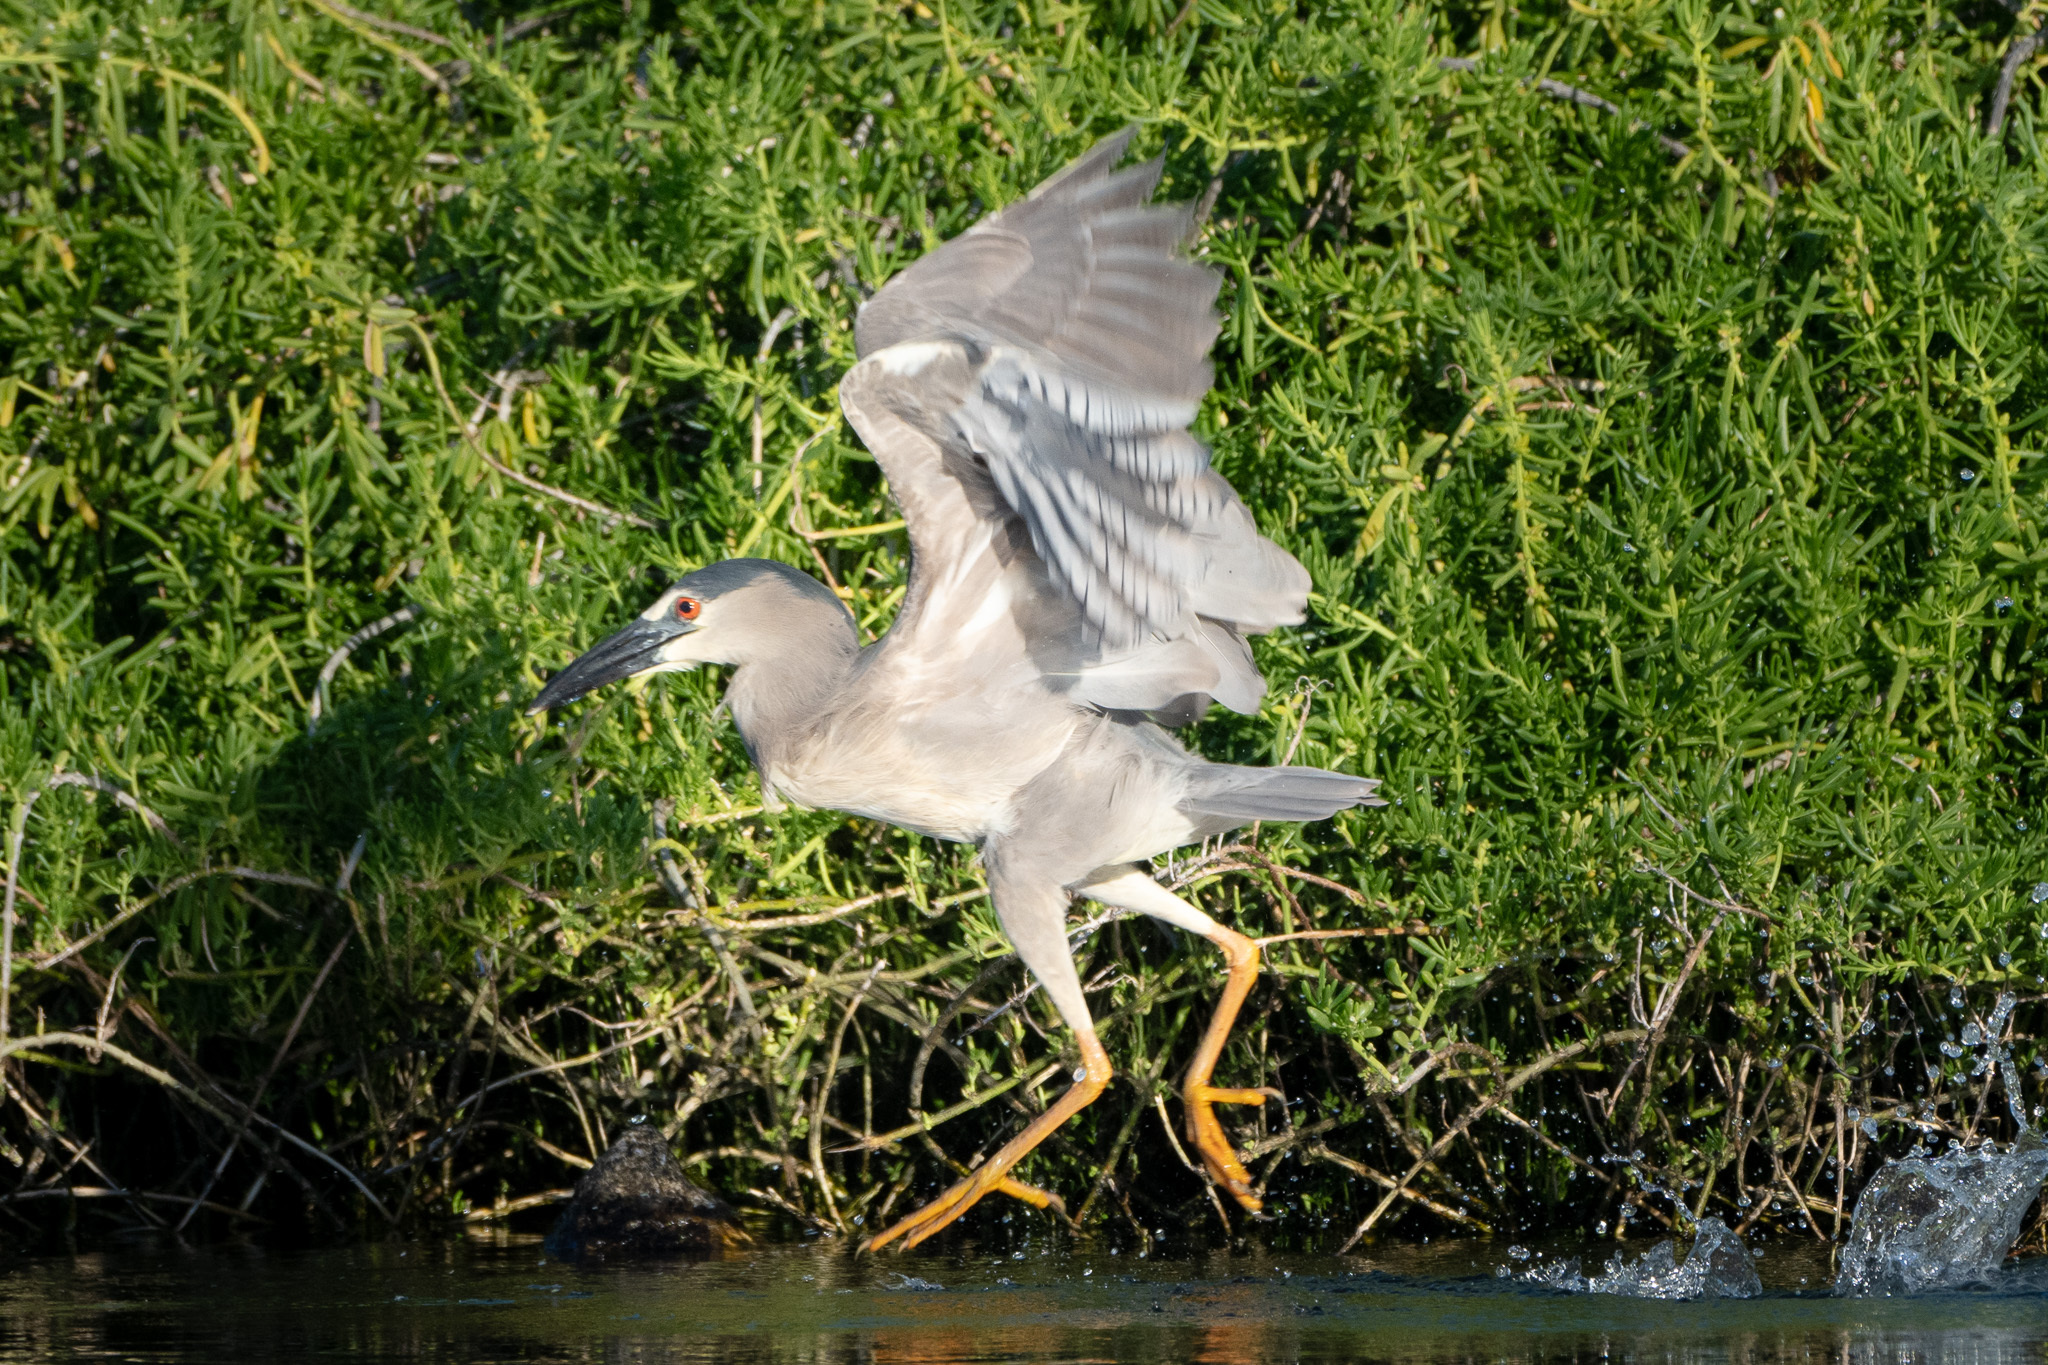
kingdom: Animalia
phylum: Chordata
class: Aves
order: Pelecaniformes
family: Ardeidae
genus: Nycticorax
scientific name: Nycticorax nycticorax
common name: Black-crowned night heron
